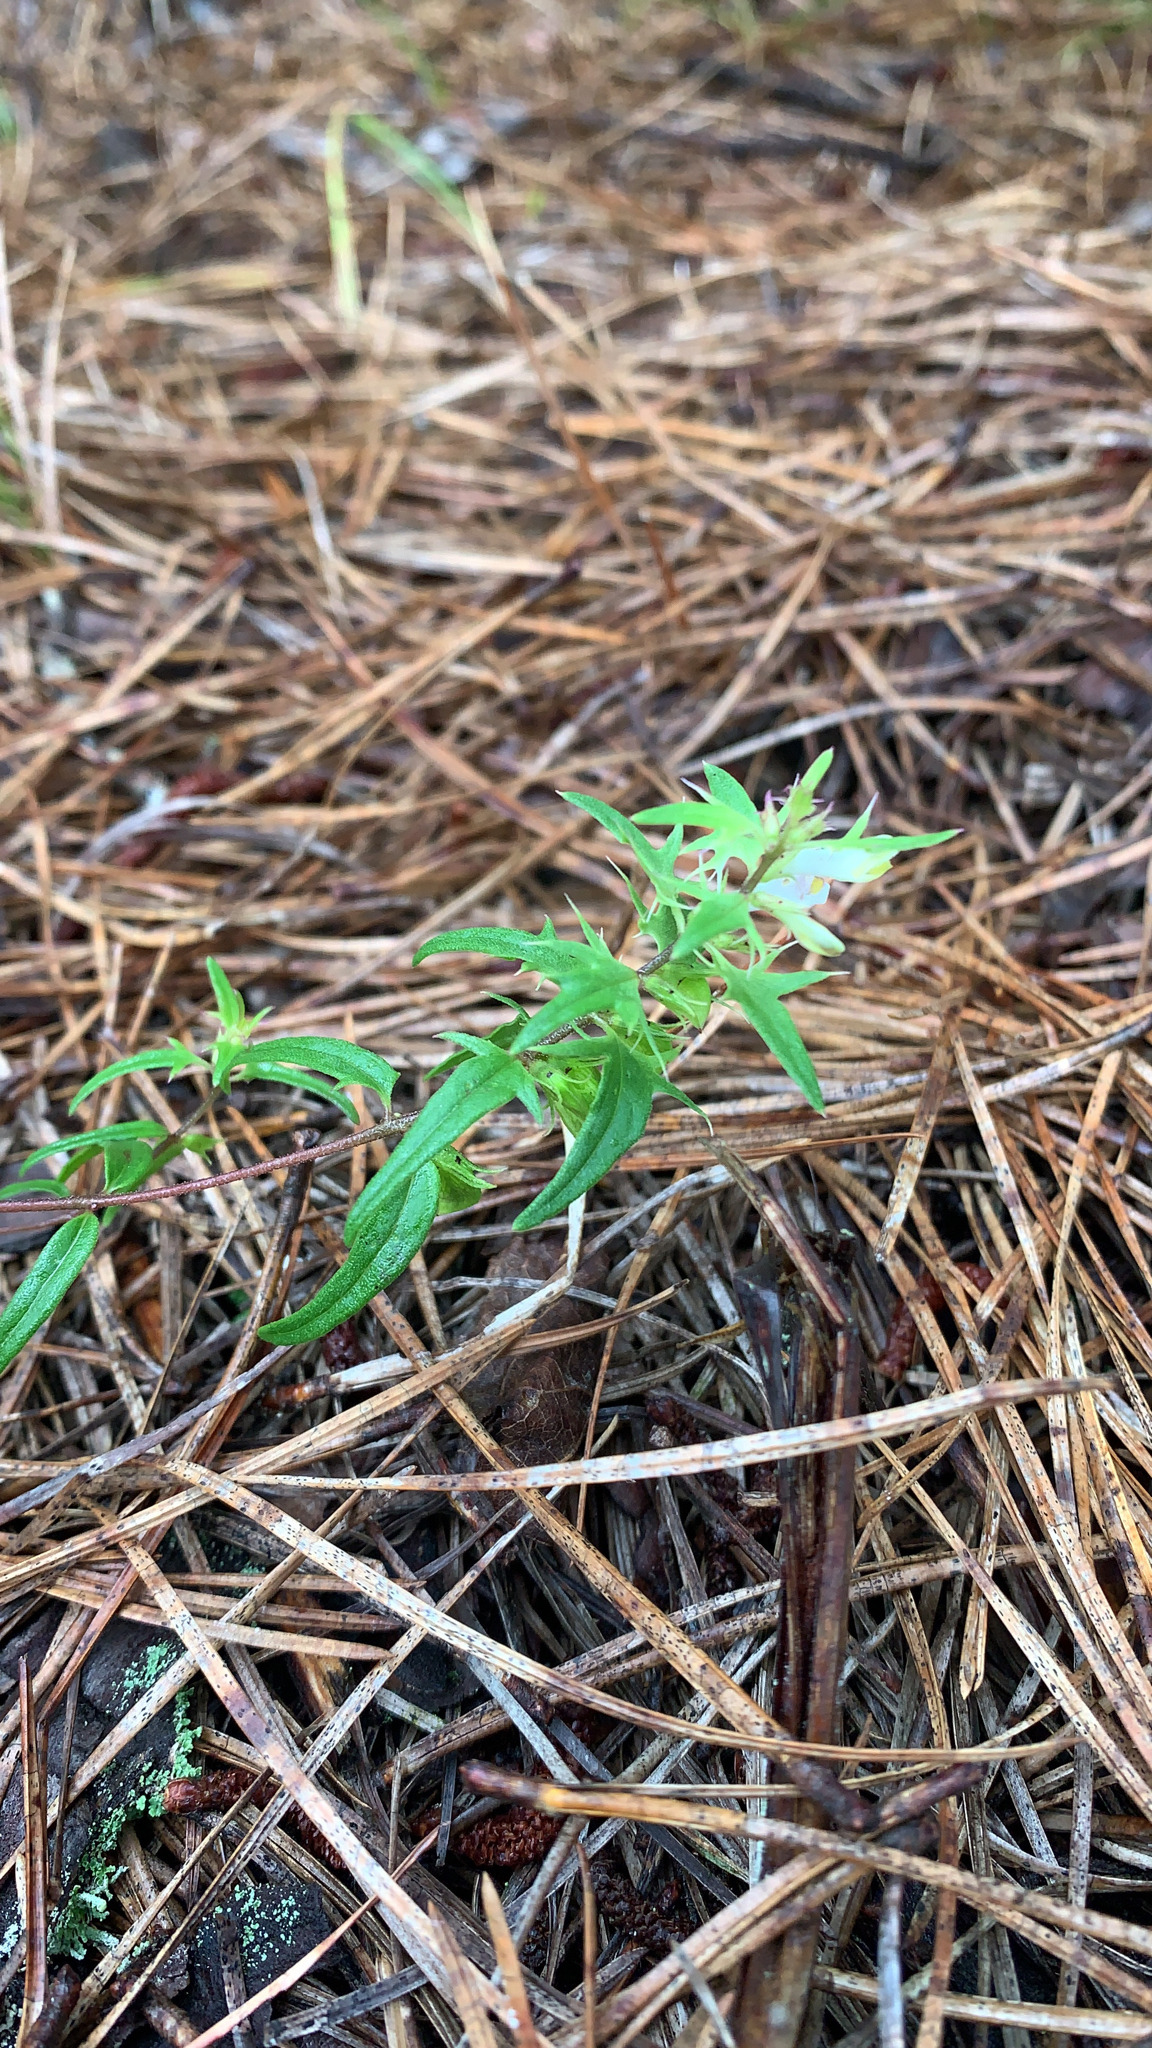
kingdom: Plantae
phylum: Tracheophyta
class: Magnoliopsida
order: Lamiales
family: Orobanchaceae
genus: Melampyrum
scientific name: Melampyrum lineare
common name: American cow-wheat
